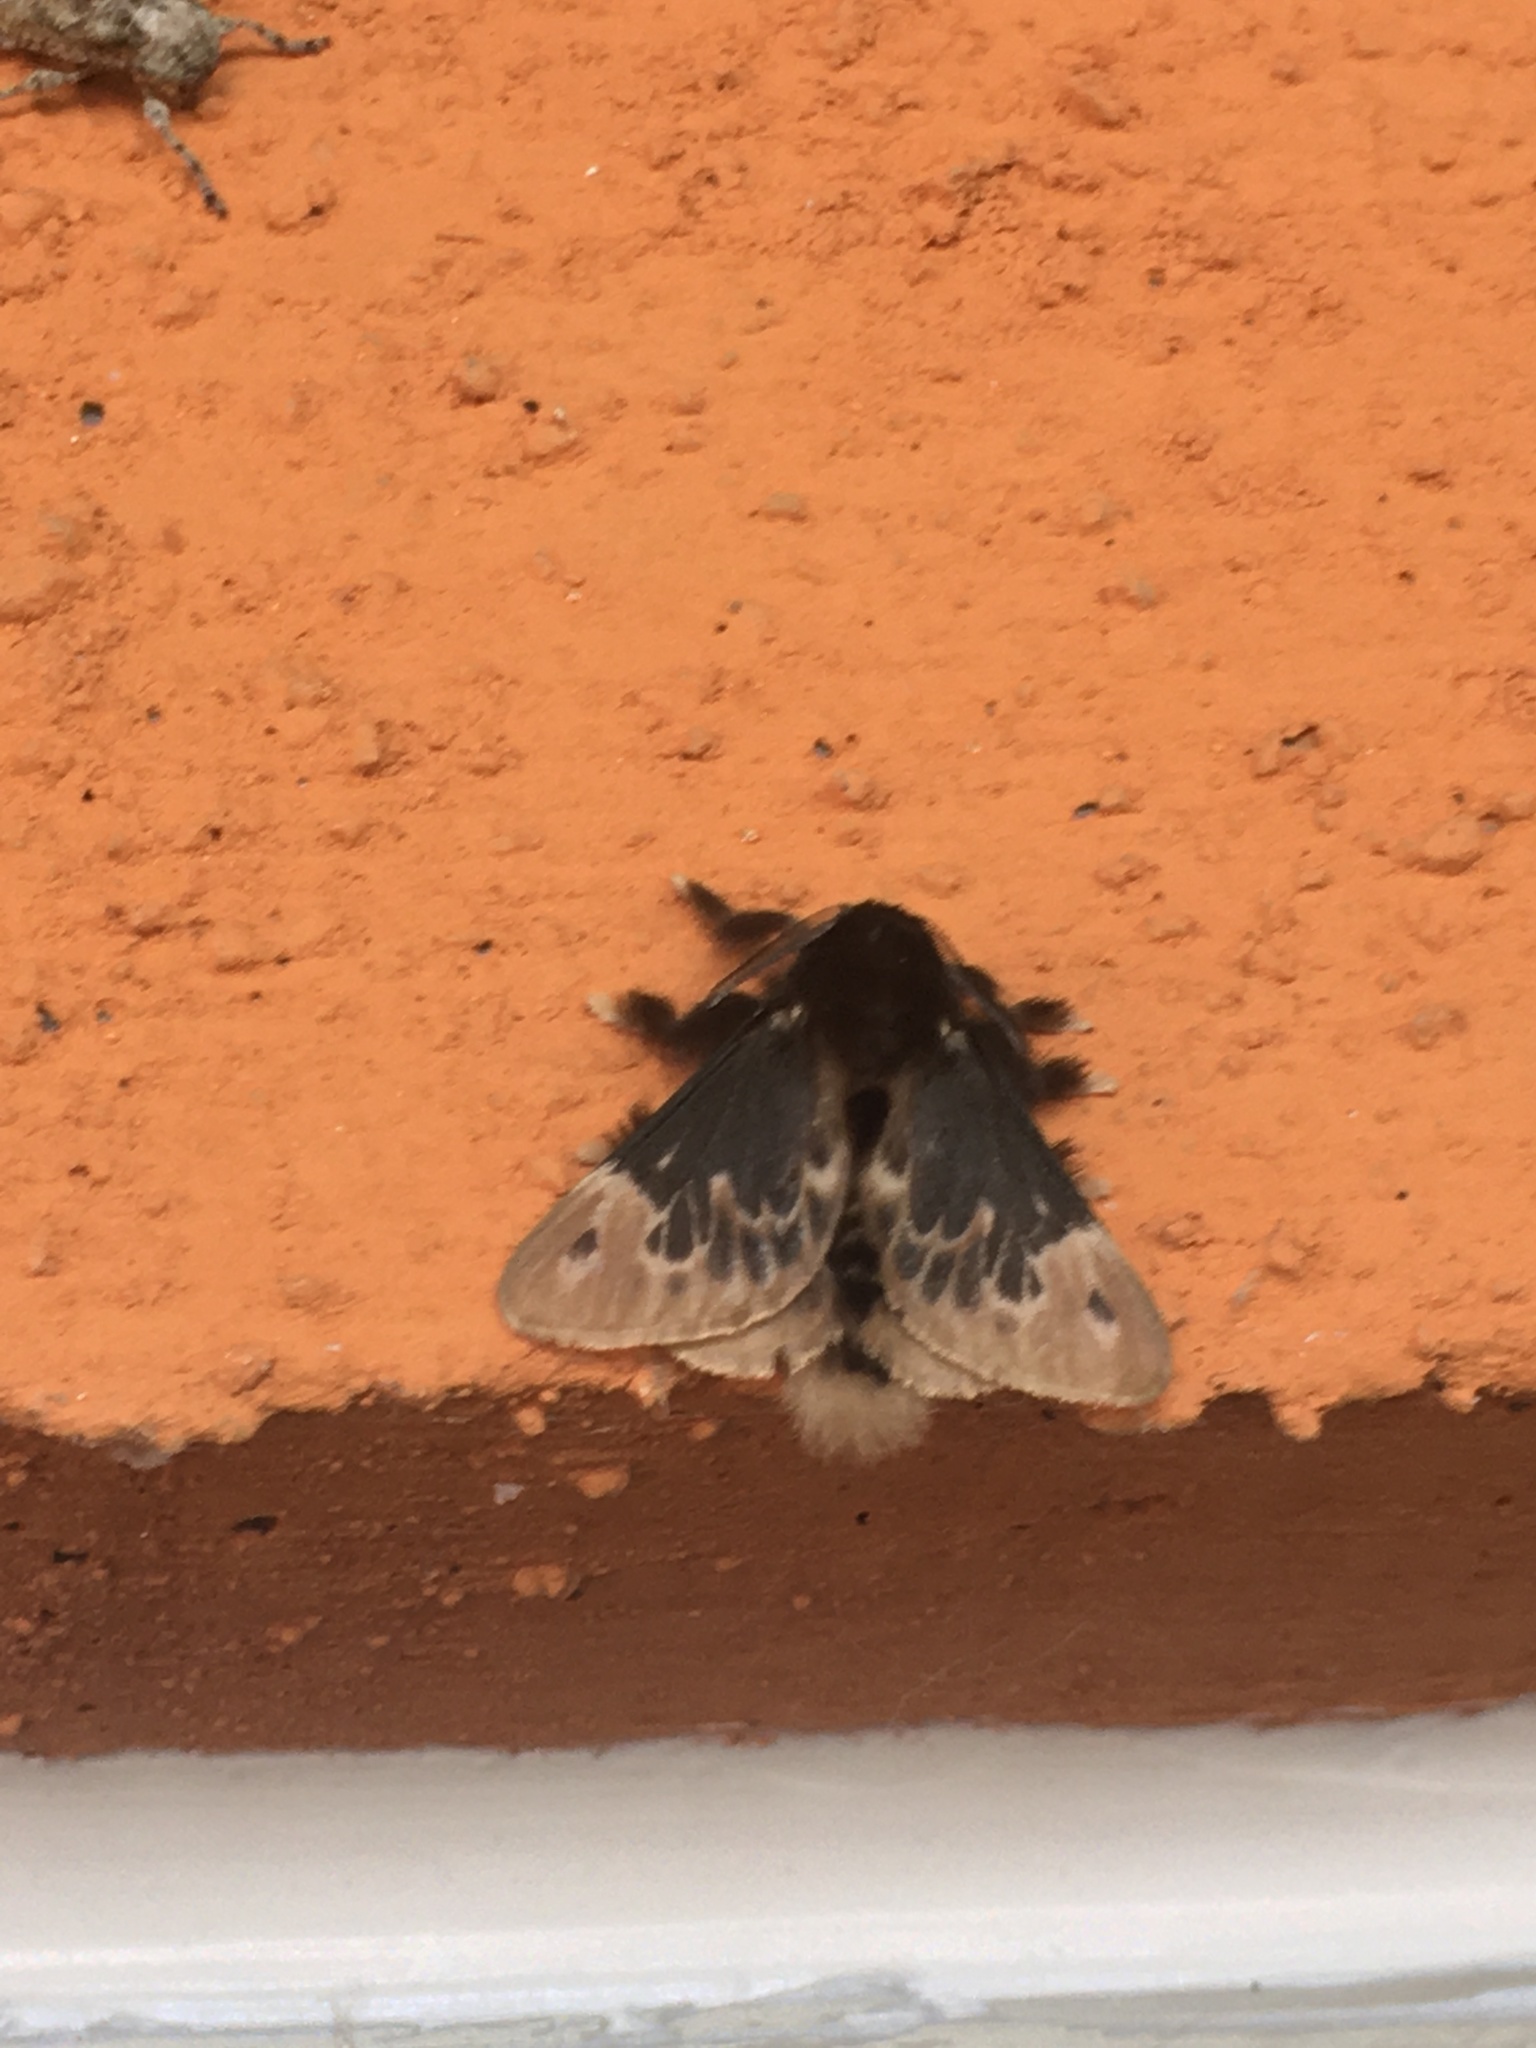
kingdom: Animalia
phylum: Arthropoda
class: Insecta
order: Lepidoptera
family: Megalopygidae
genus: Podalia
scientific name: Podalia amarga
